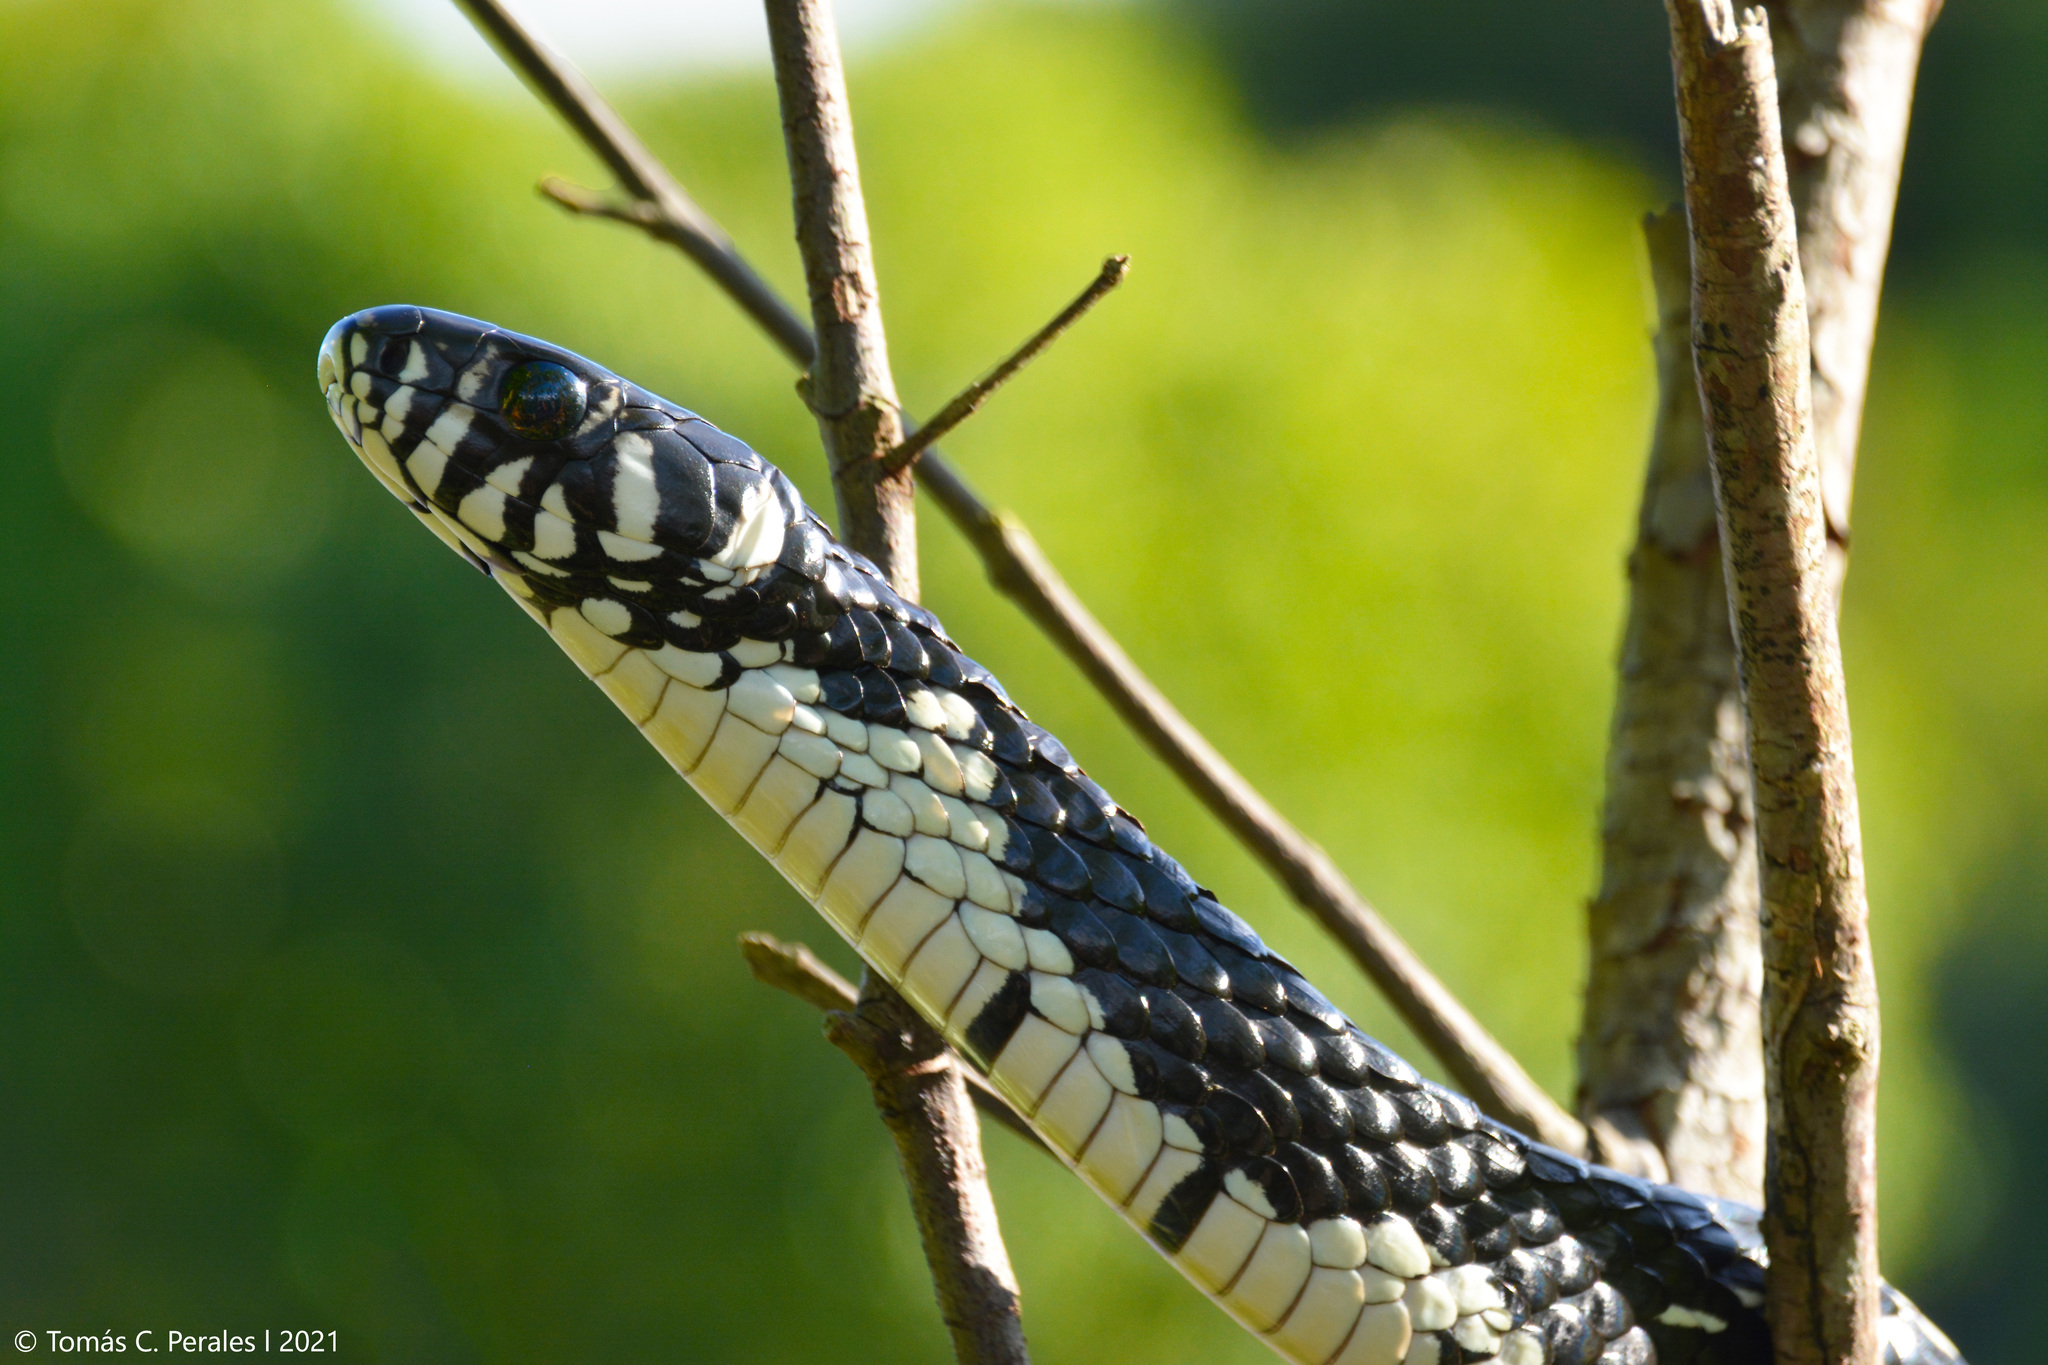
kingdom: Animalia
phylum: Chordata
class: Squamata
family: Colubridae
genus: Spilotes
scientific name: Spilotes pullatus
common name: Chicken snake
